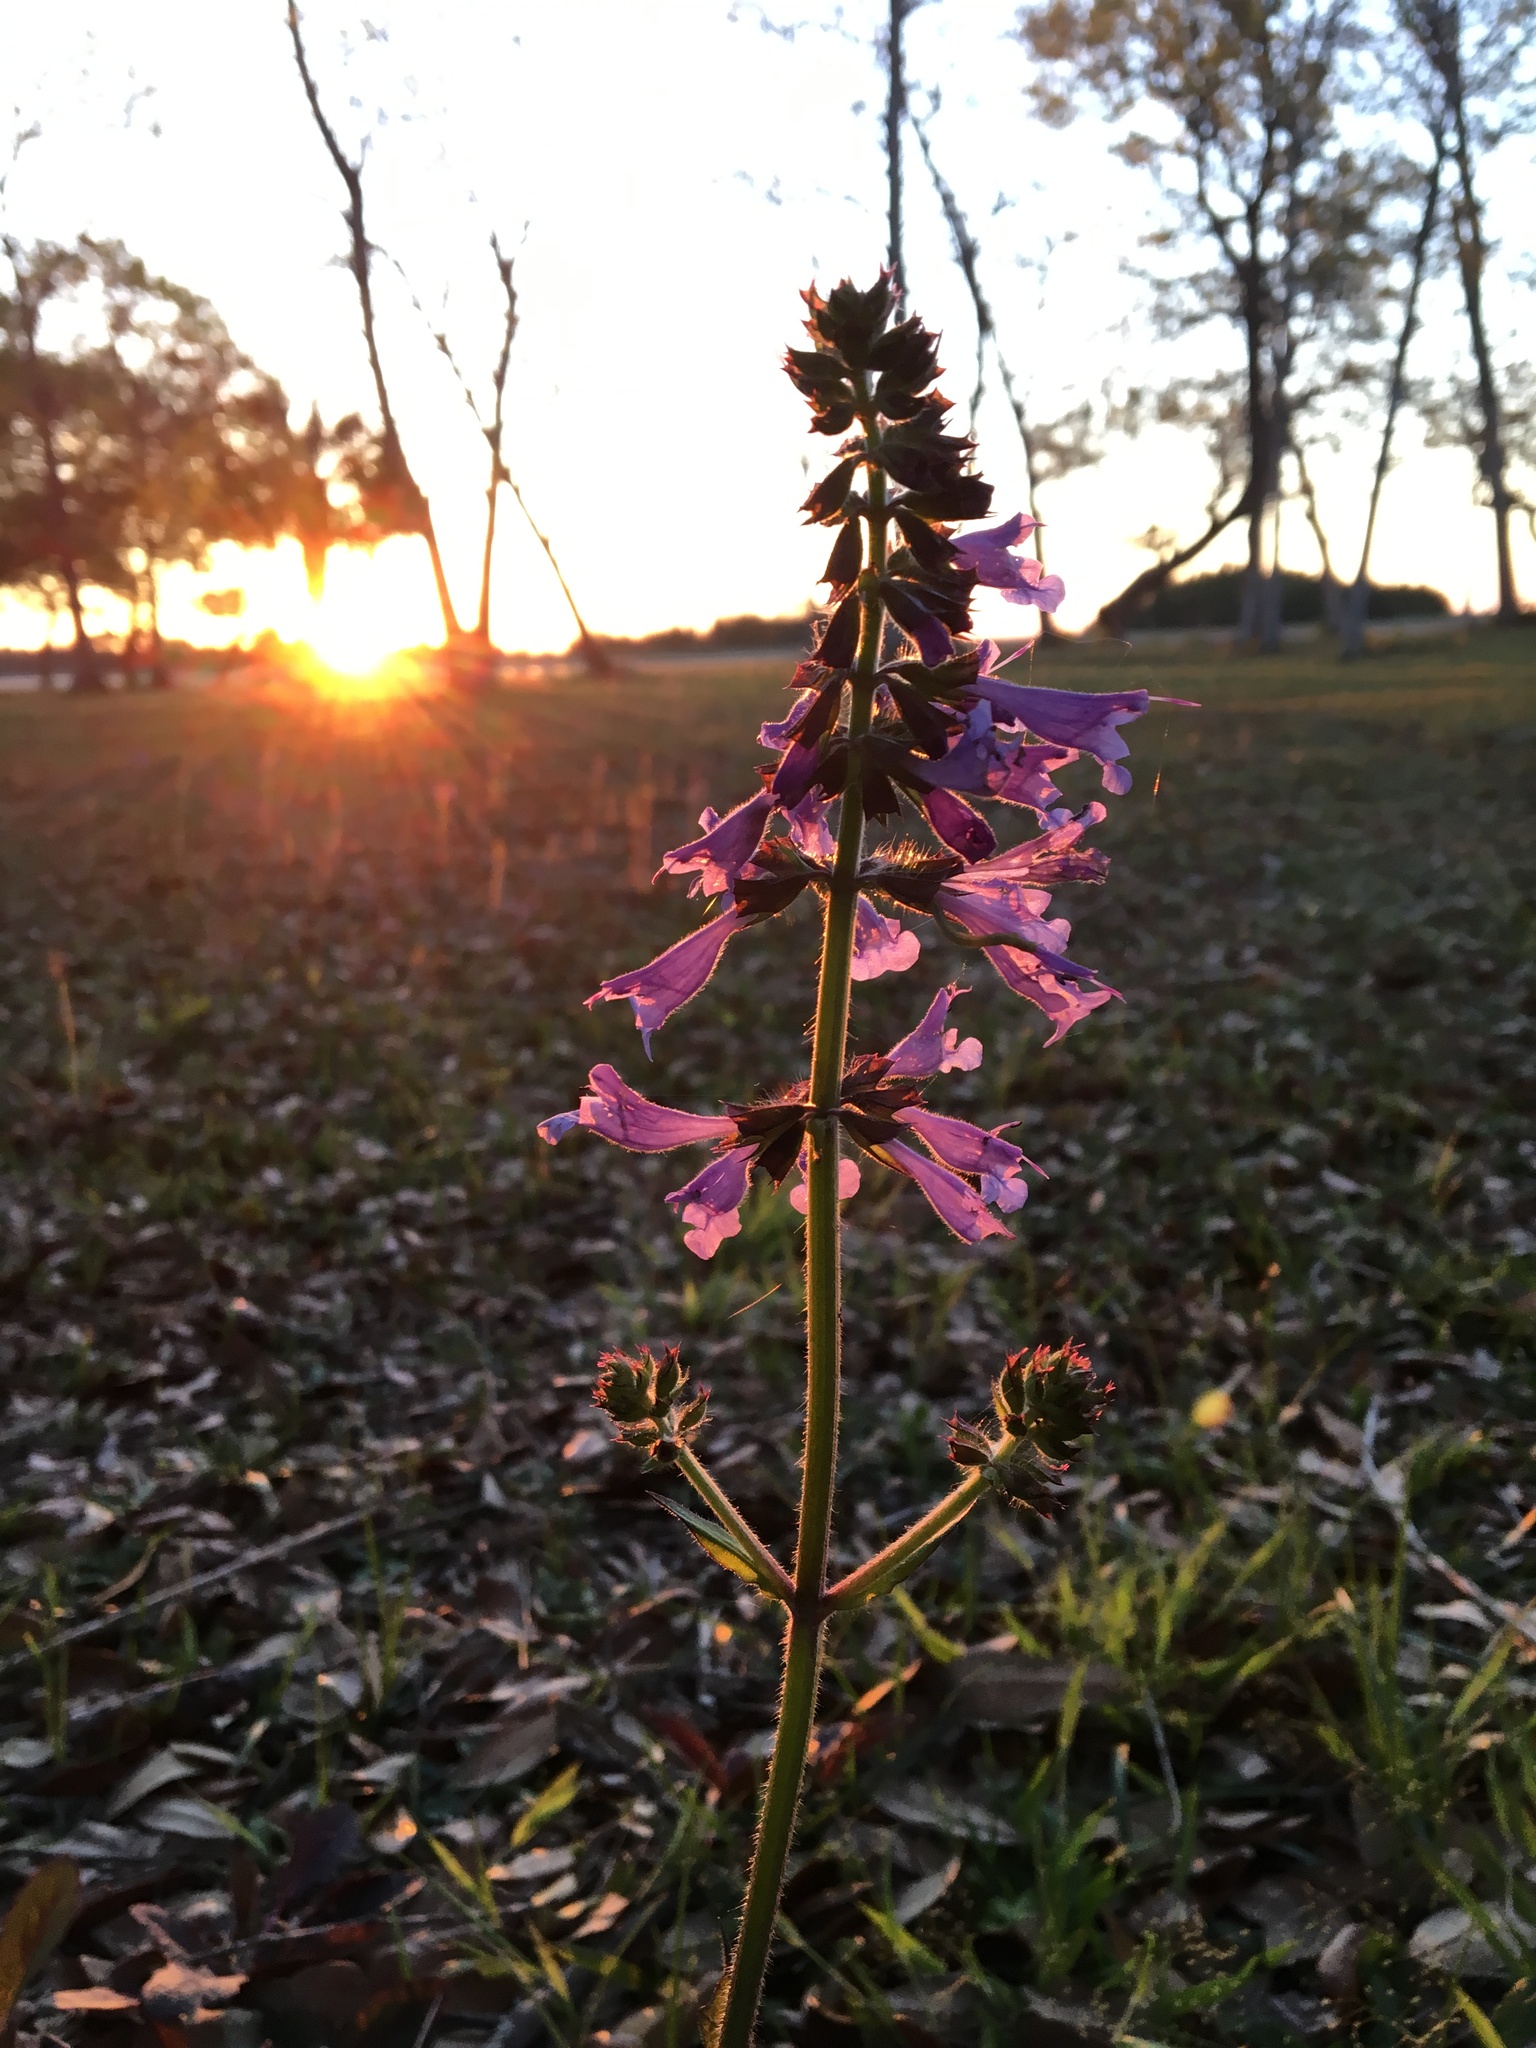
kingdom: Plantae
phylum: Tracheophyta
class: Magnoliopsida
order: Lamiales
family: Lamiaceae
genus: Salvia
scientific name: Salvia lyrata
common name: Cancerweed
